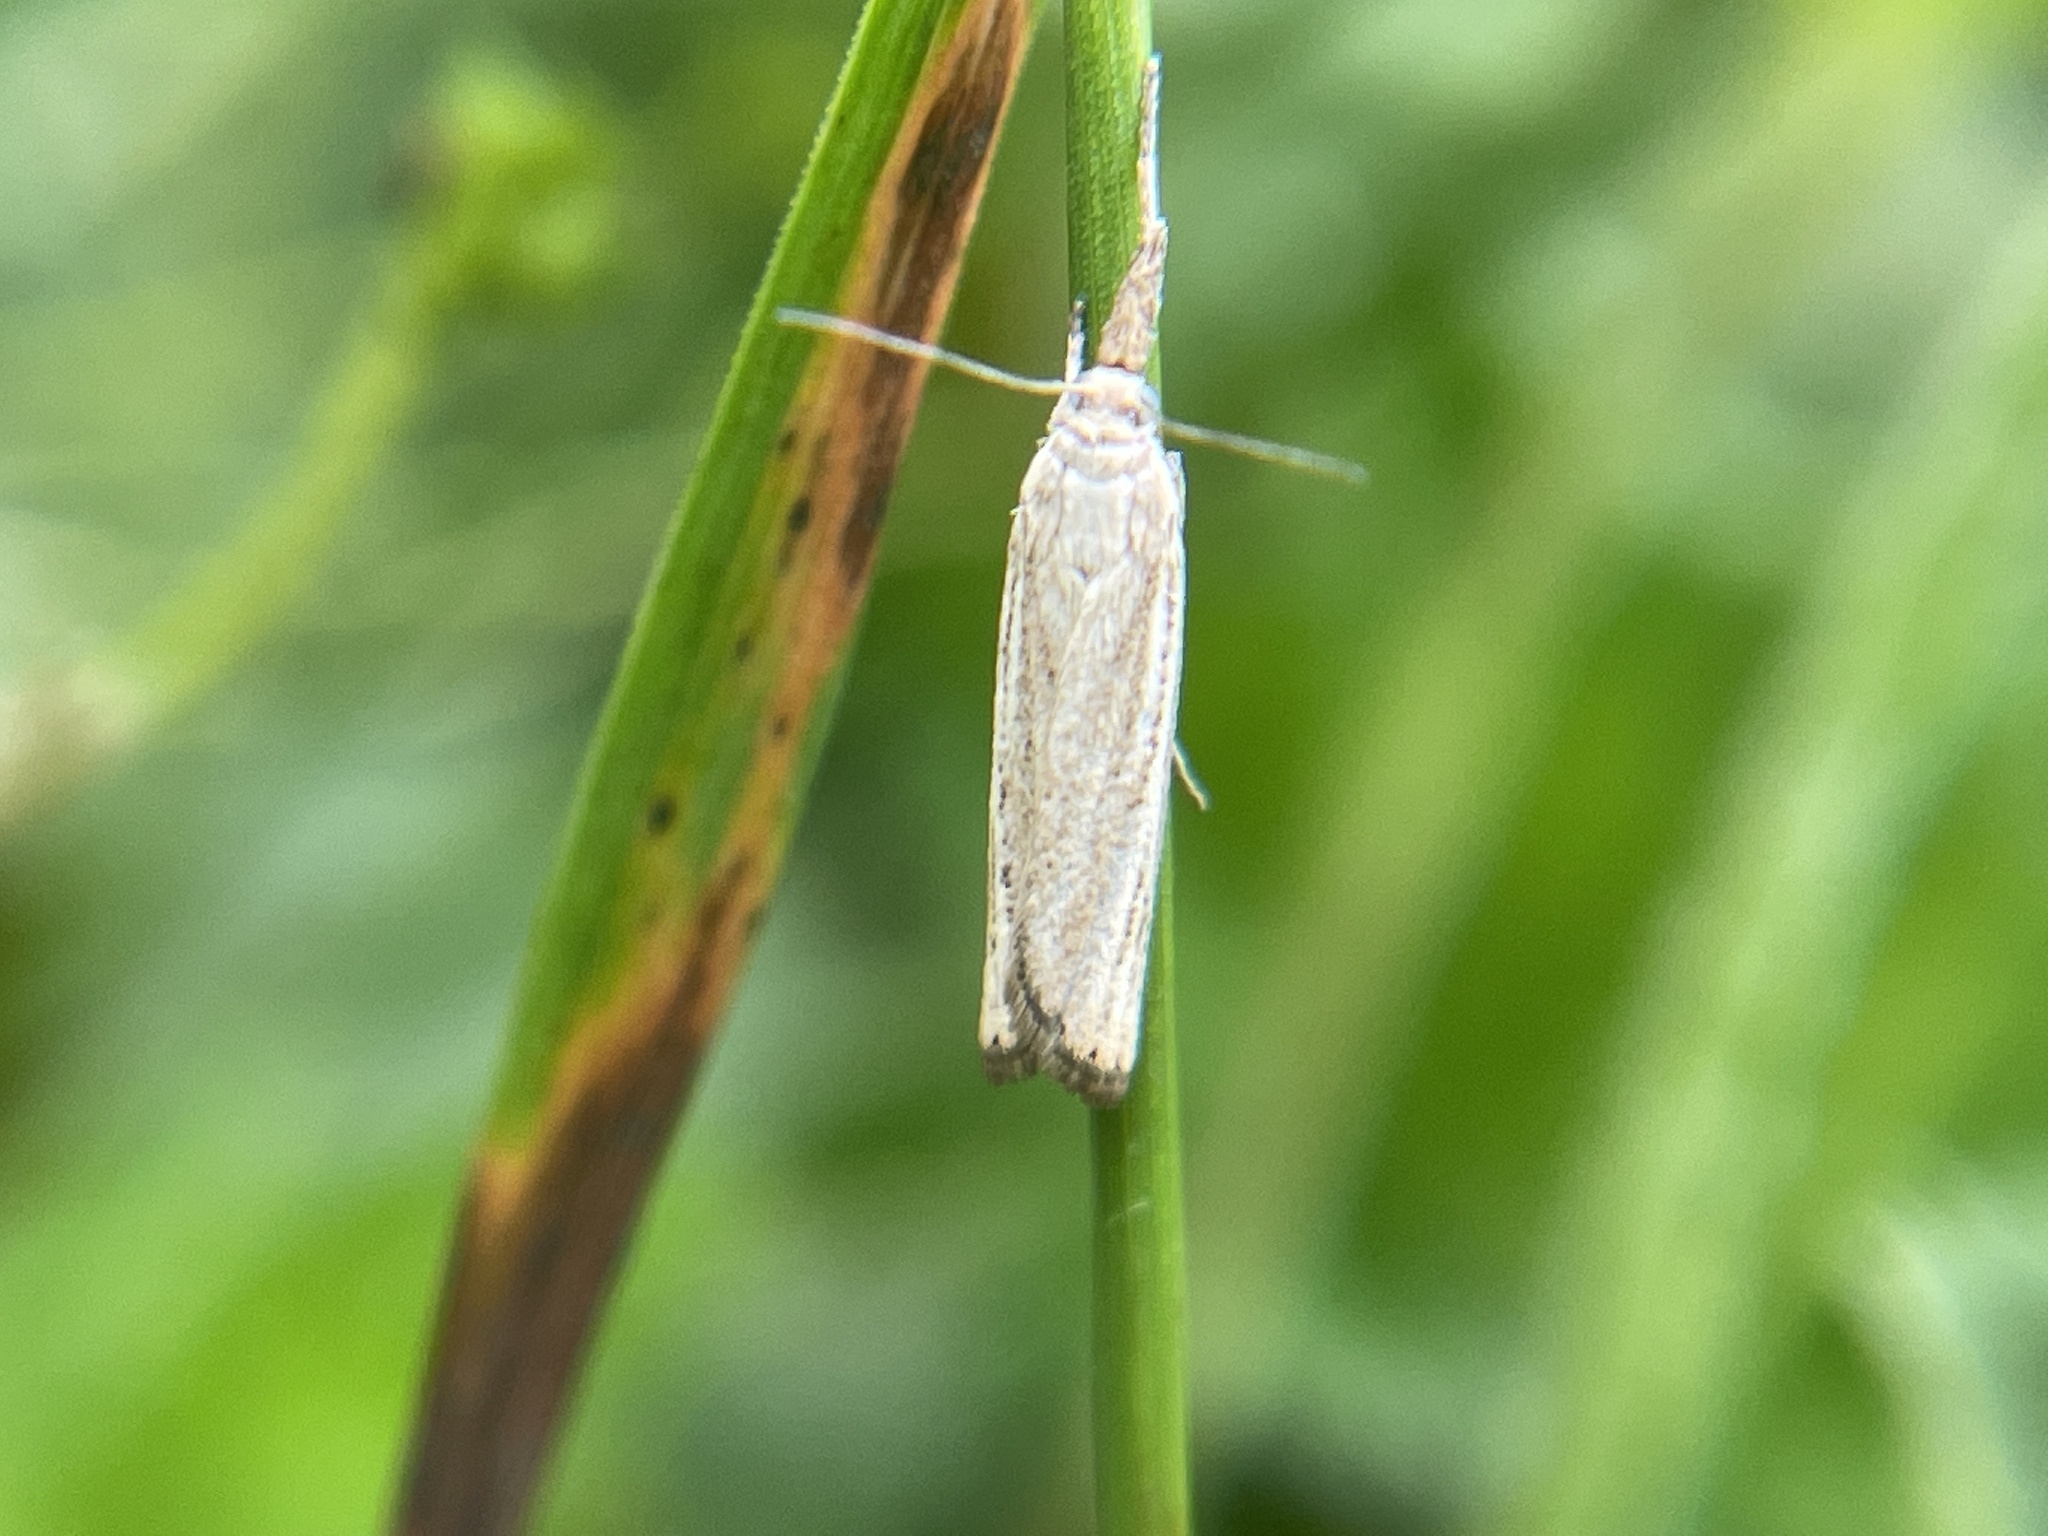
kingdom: Animalia
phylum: Arthropoda
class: Insecta
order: Lepidoptera
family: Crambidae
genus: Agriphila
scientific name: Agriphila straminella
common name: Straw grass-veneer
